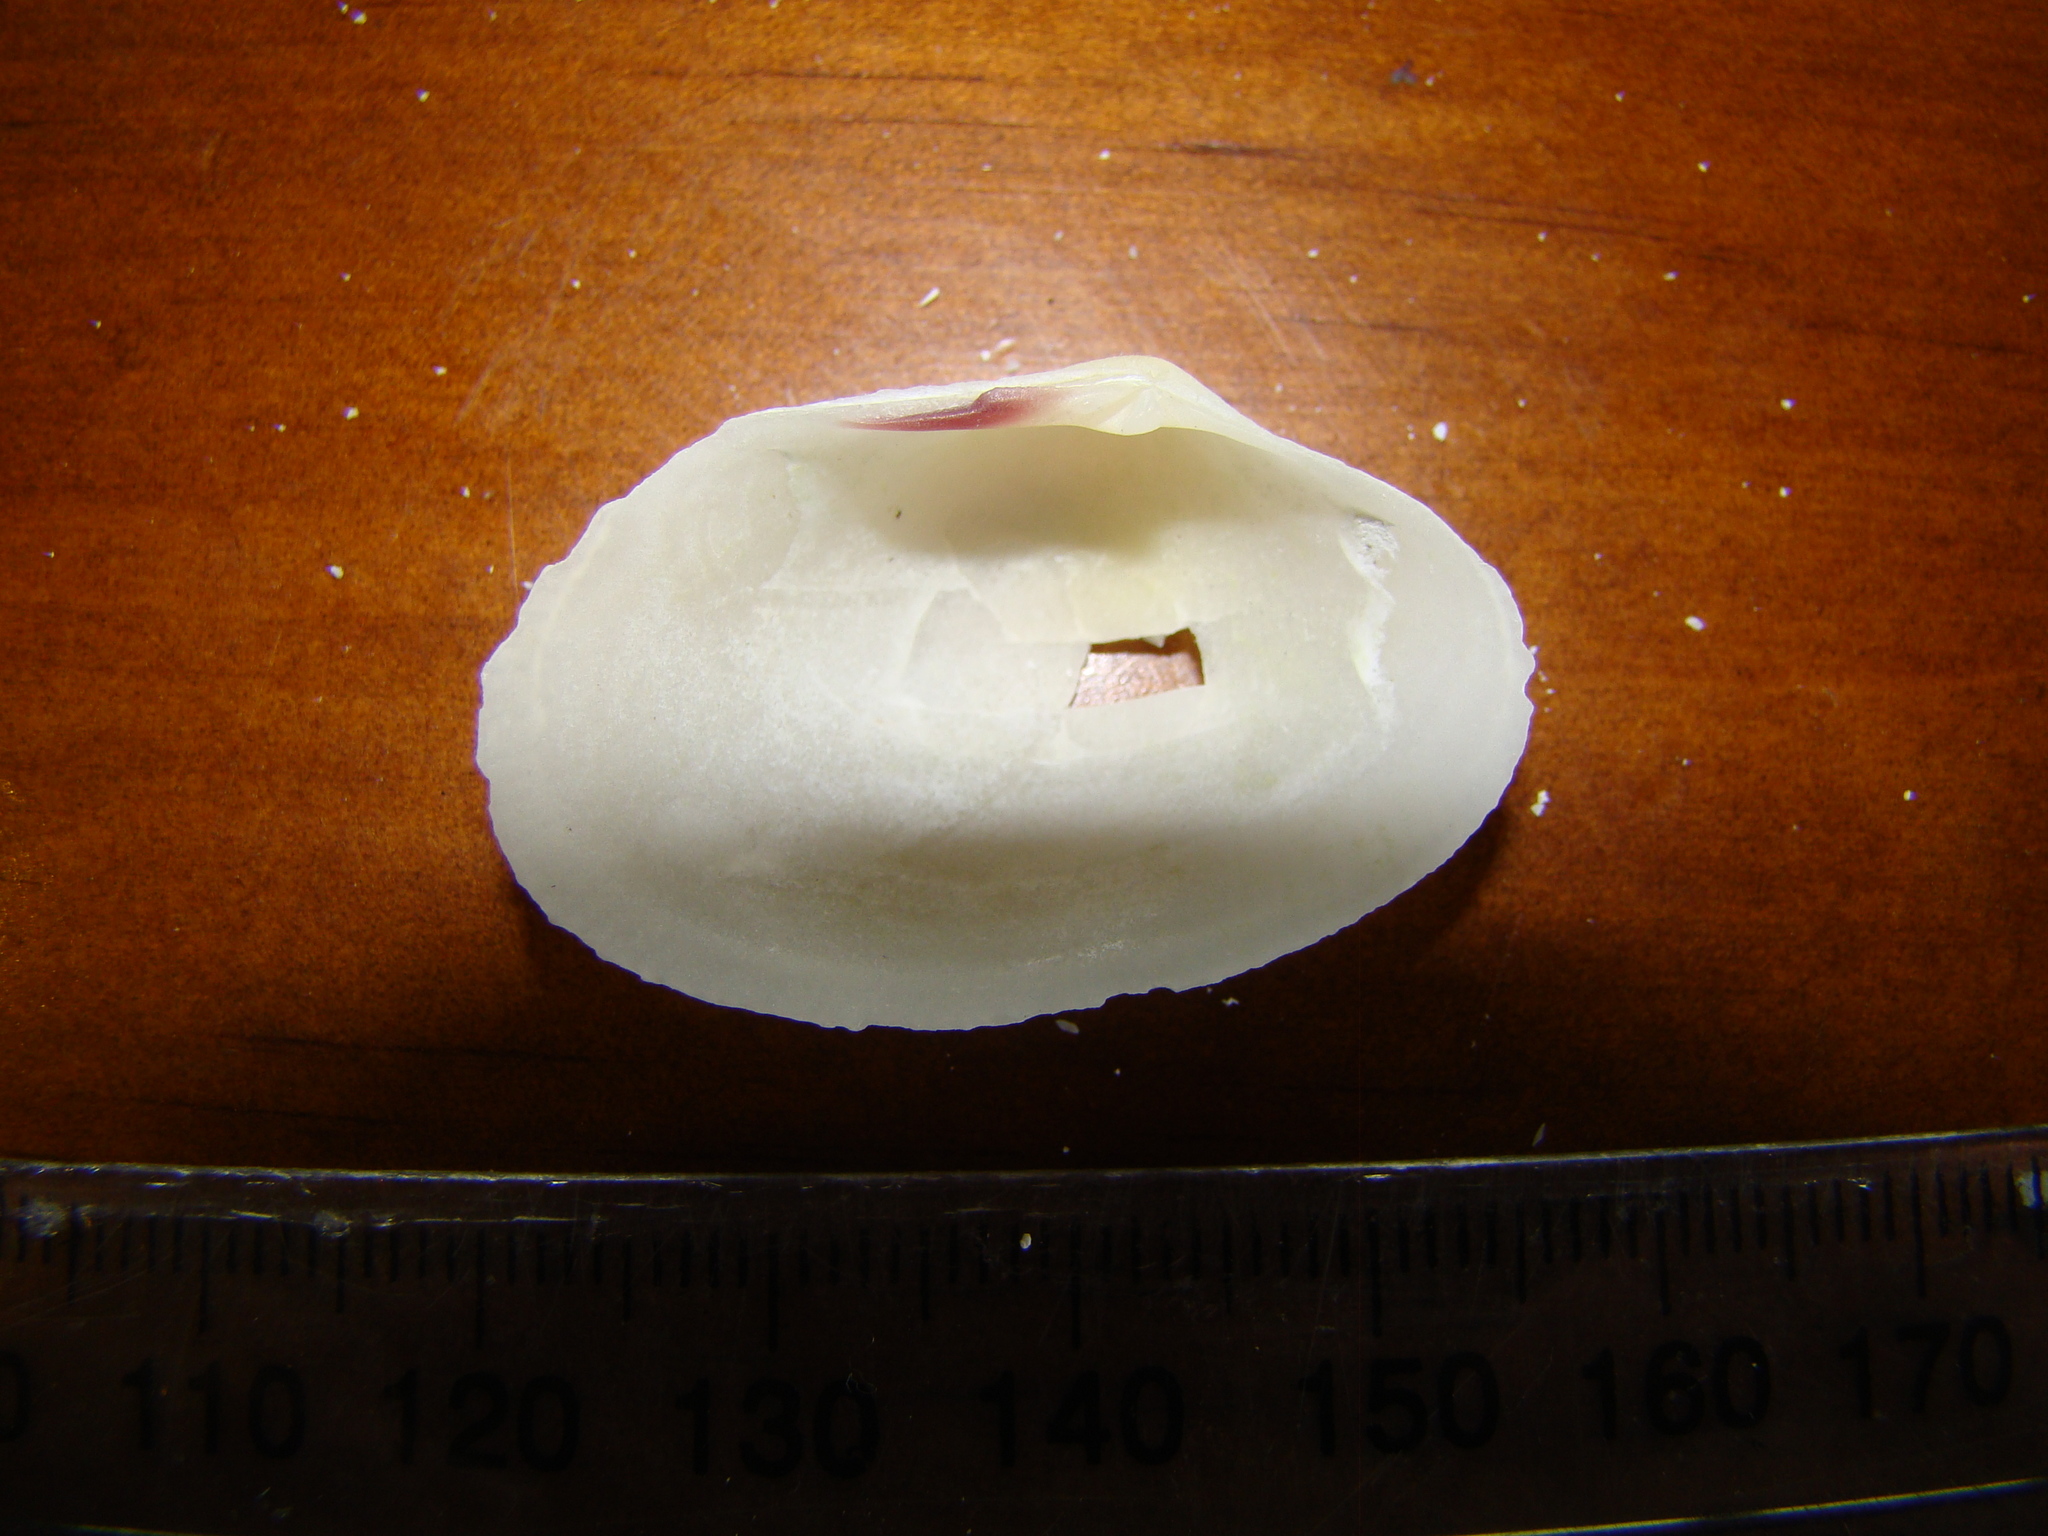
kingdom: Animalia
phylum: Mollusca
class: Bivalvia
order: Cardiida
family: Psammobiidae
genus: Asaphis
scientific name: Asaphis violascens
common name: Pacific asaphis
